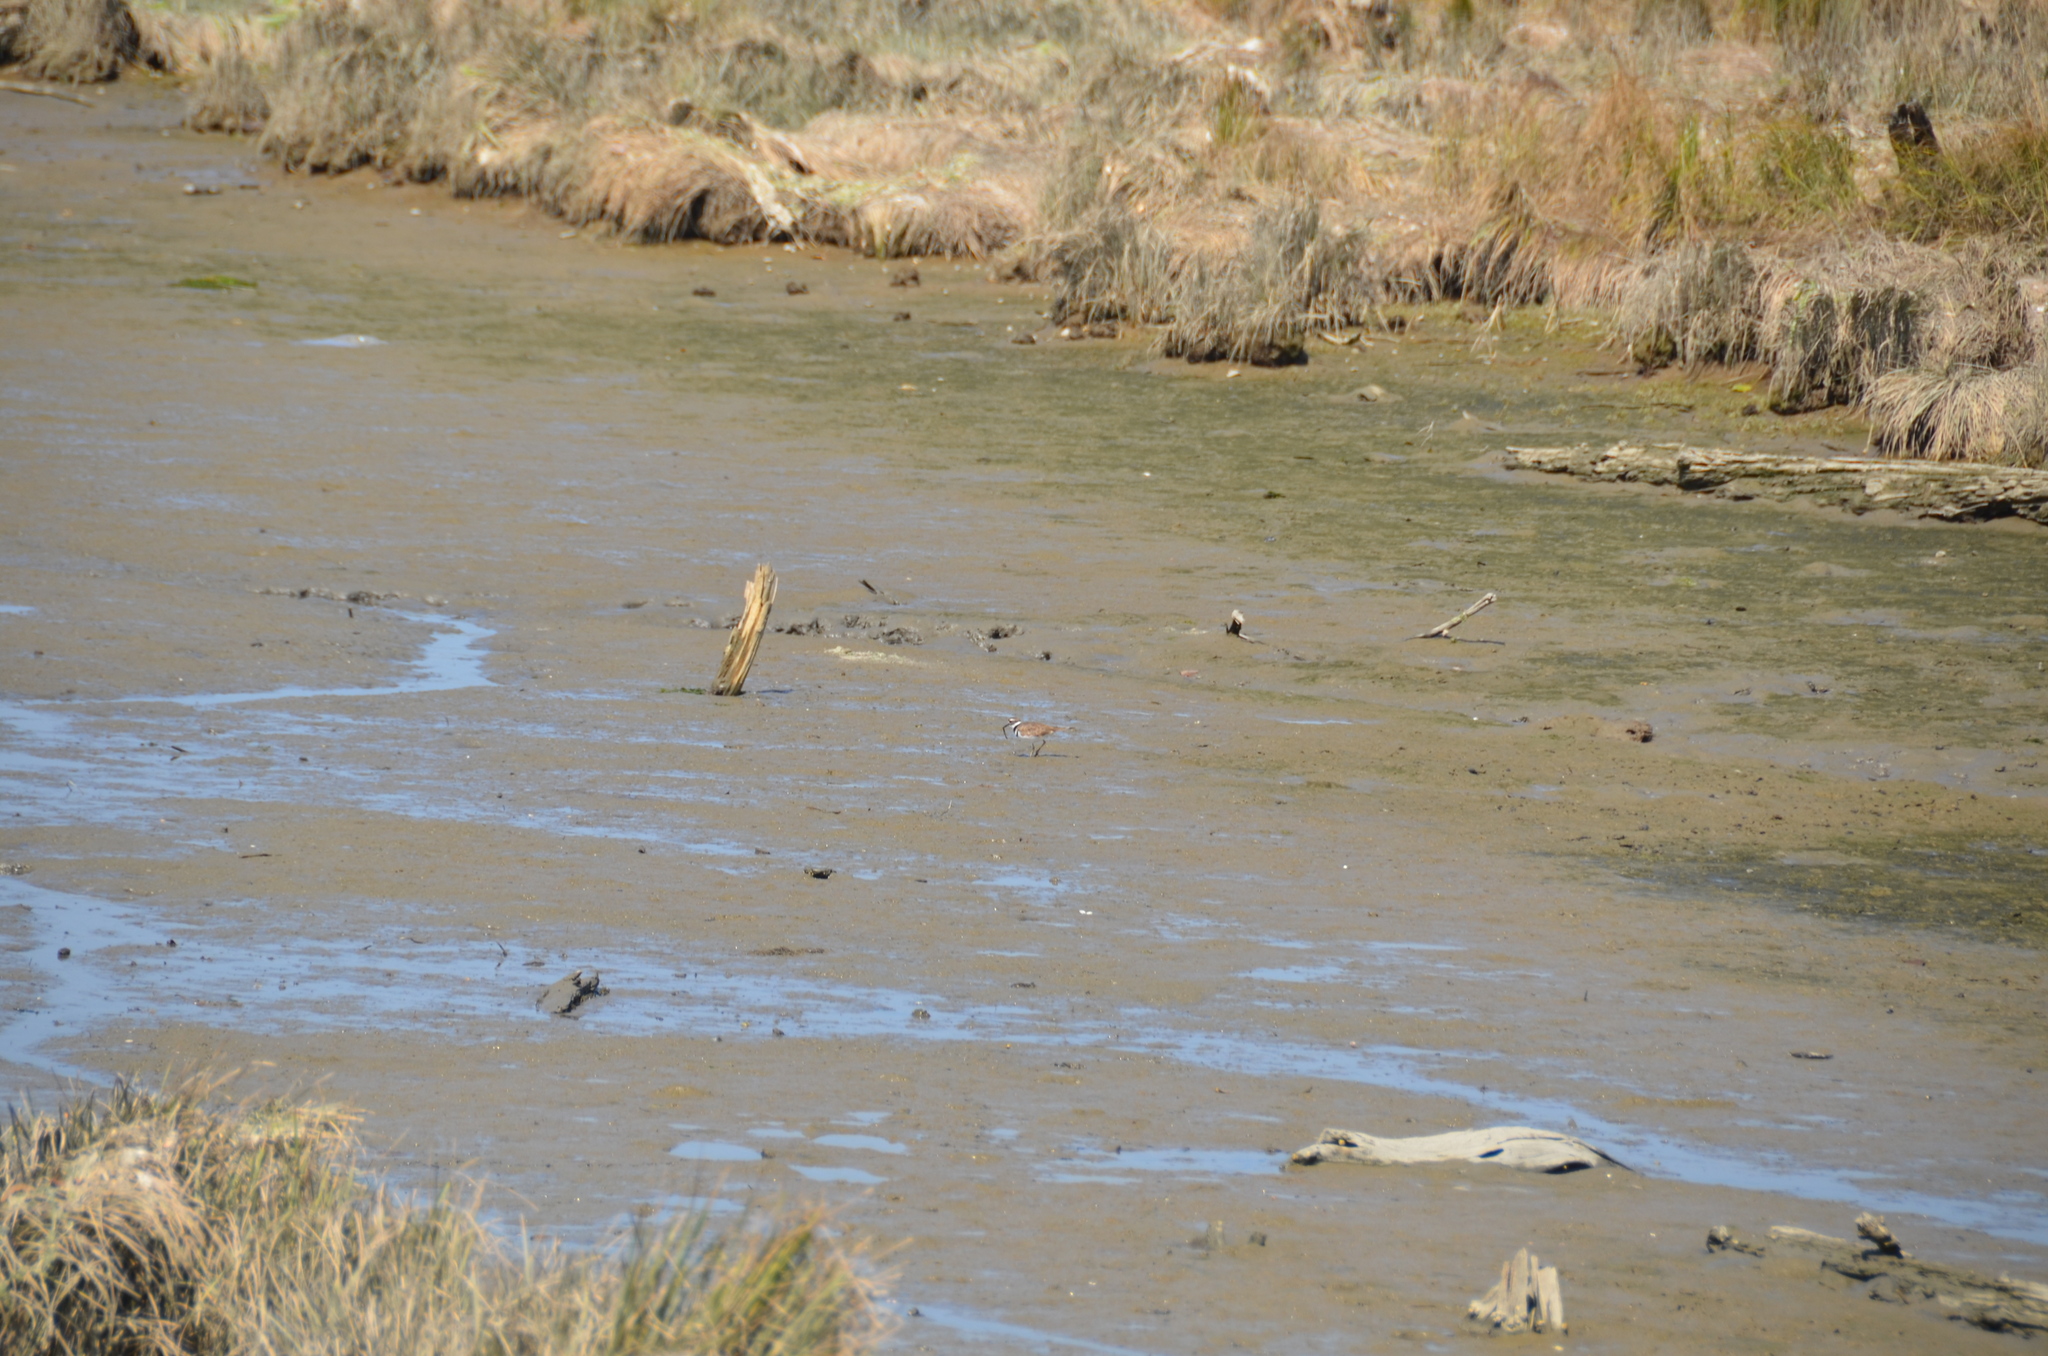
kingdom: Animalia
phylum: Chordata
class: Aves
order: Charadriiformes
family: Charadriidae
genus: Charadrius
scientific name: Charadrius vociferus
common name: Killdeer
